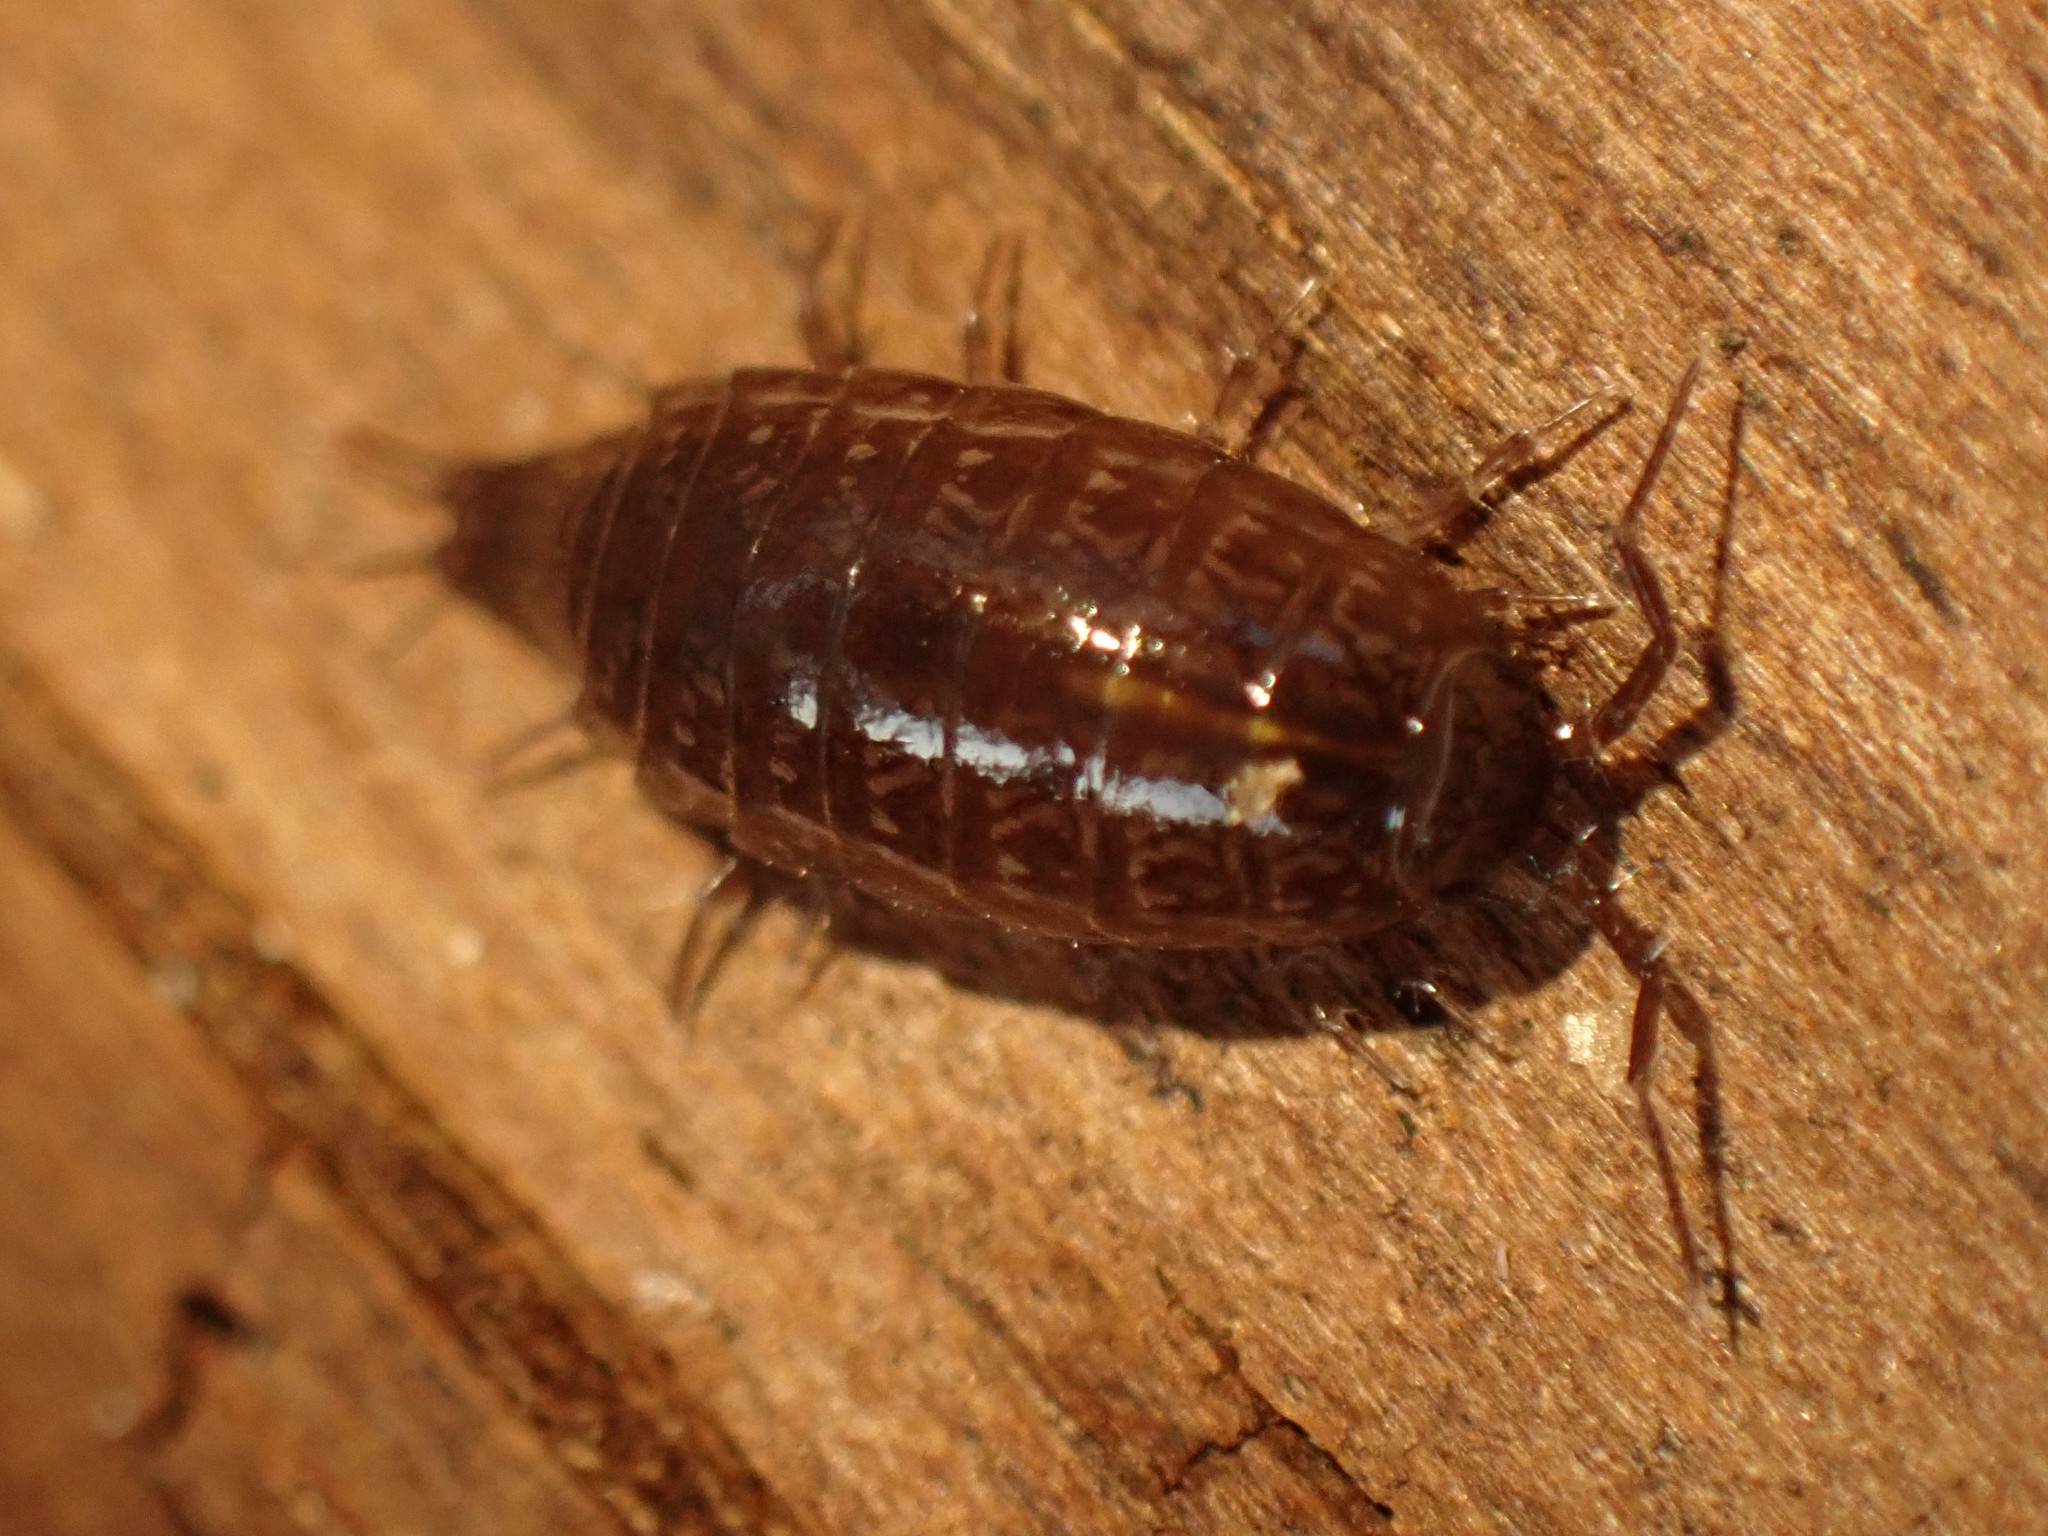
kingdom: Animalia
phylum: Arthropoda
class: Malacostraca
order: Isopoda
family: Ligiidae
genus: Ligidium
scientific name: Ligidium gracile
